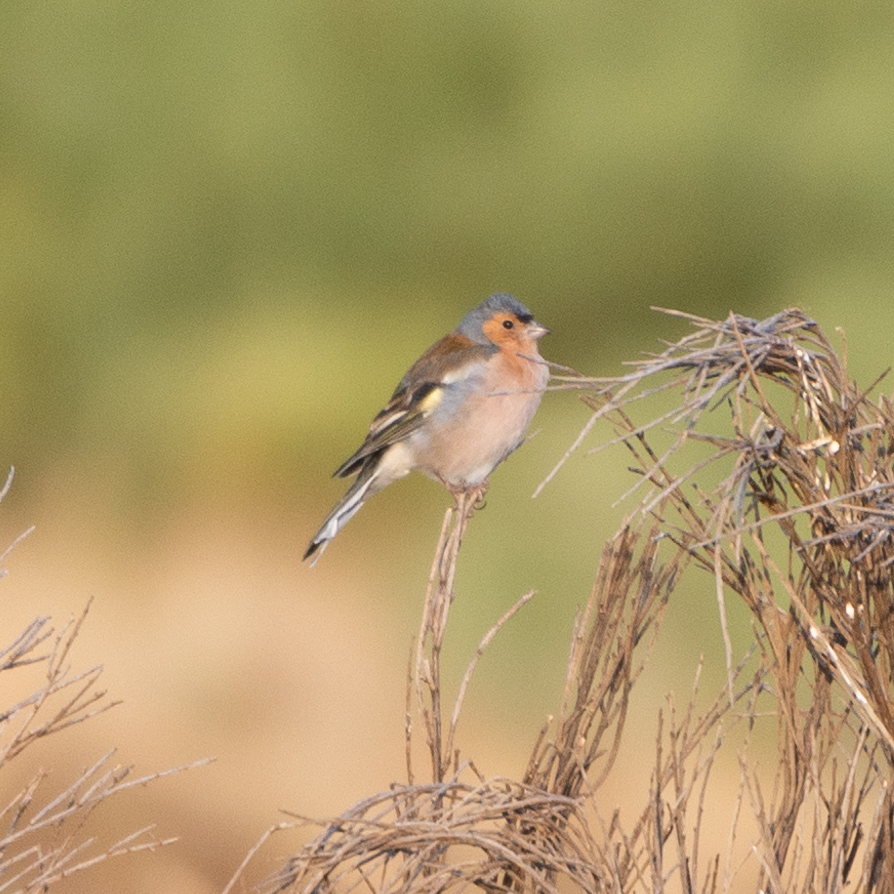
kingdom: Animalia
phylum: Chordata
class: Aves
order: Passeriformes
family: Fringillidae
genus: Fringilla
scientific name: Fringilla coelebs
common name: Common chaffinch
